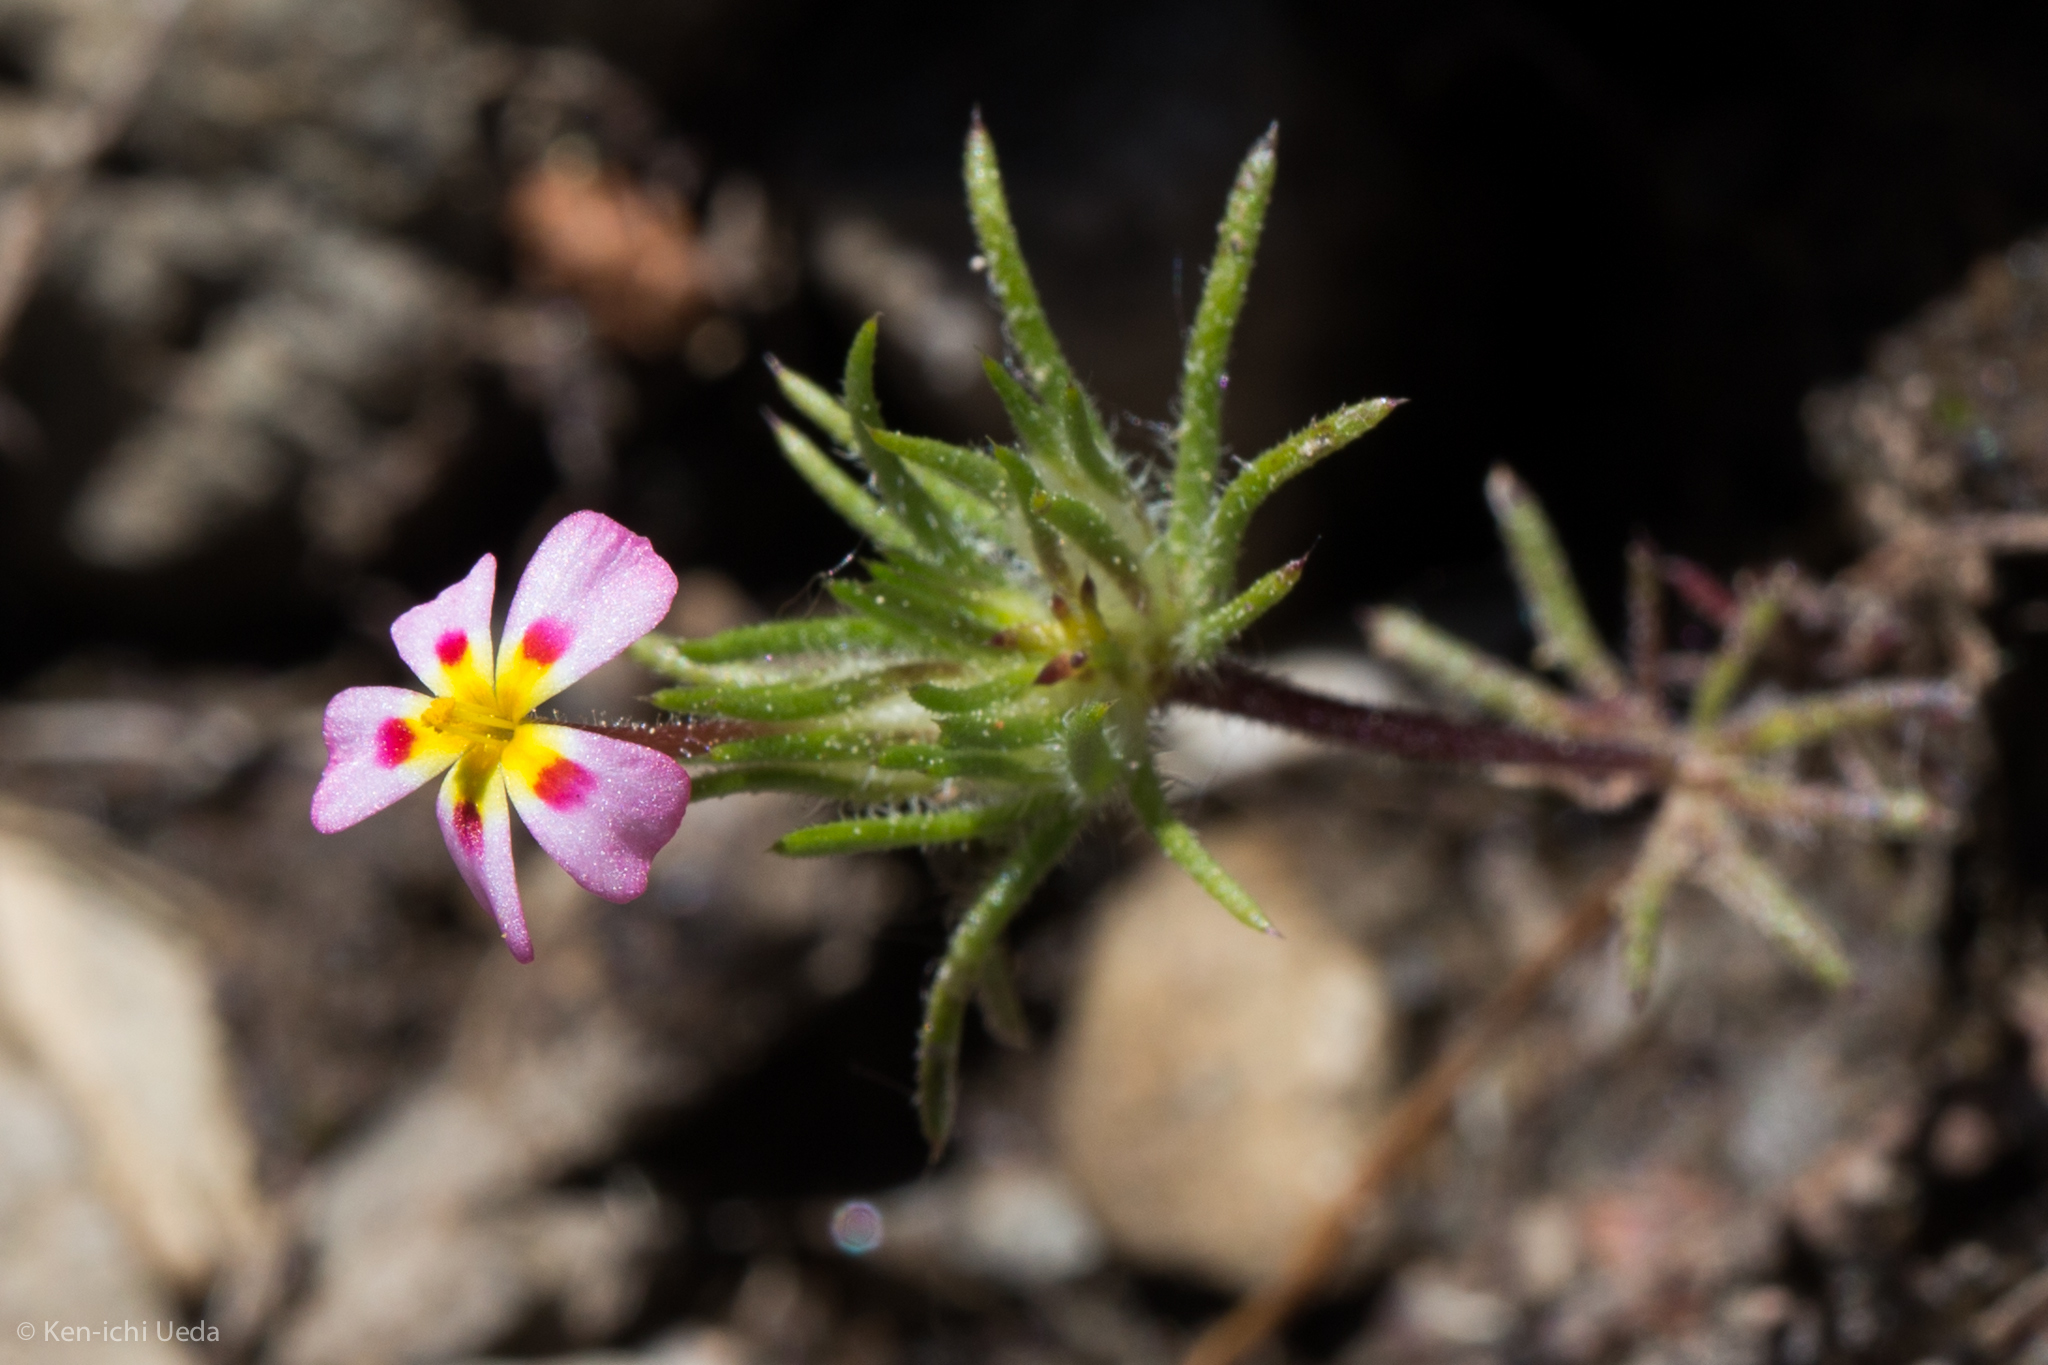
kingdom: Plantae
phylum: Tracheophyta
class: Magnoliopsida
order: Ericales
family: Polemoniaceae
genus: Leptosiphon
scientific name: Leptosiphon ciliatus
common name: Whiskerbrush
